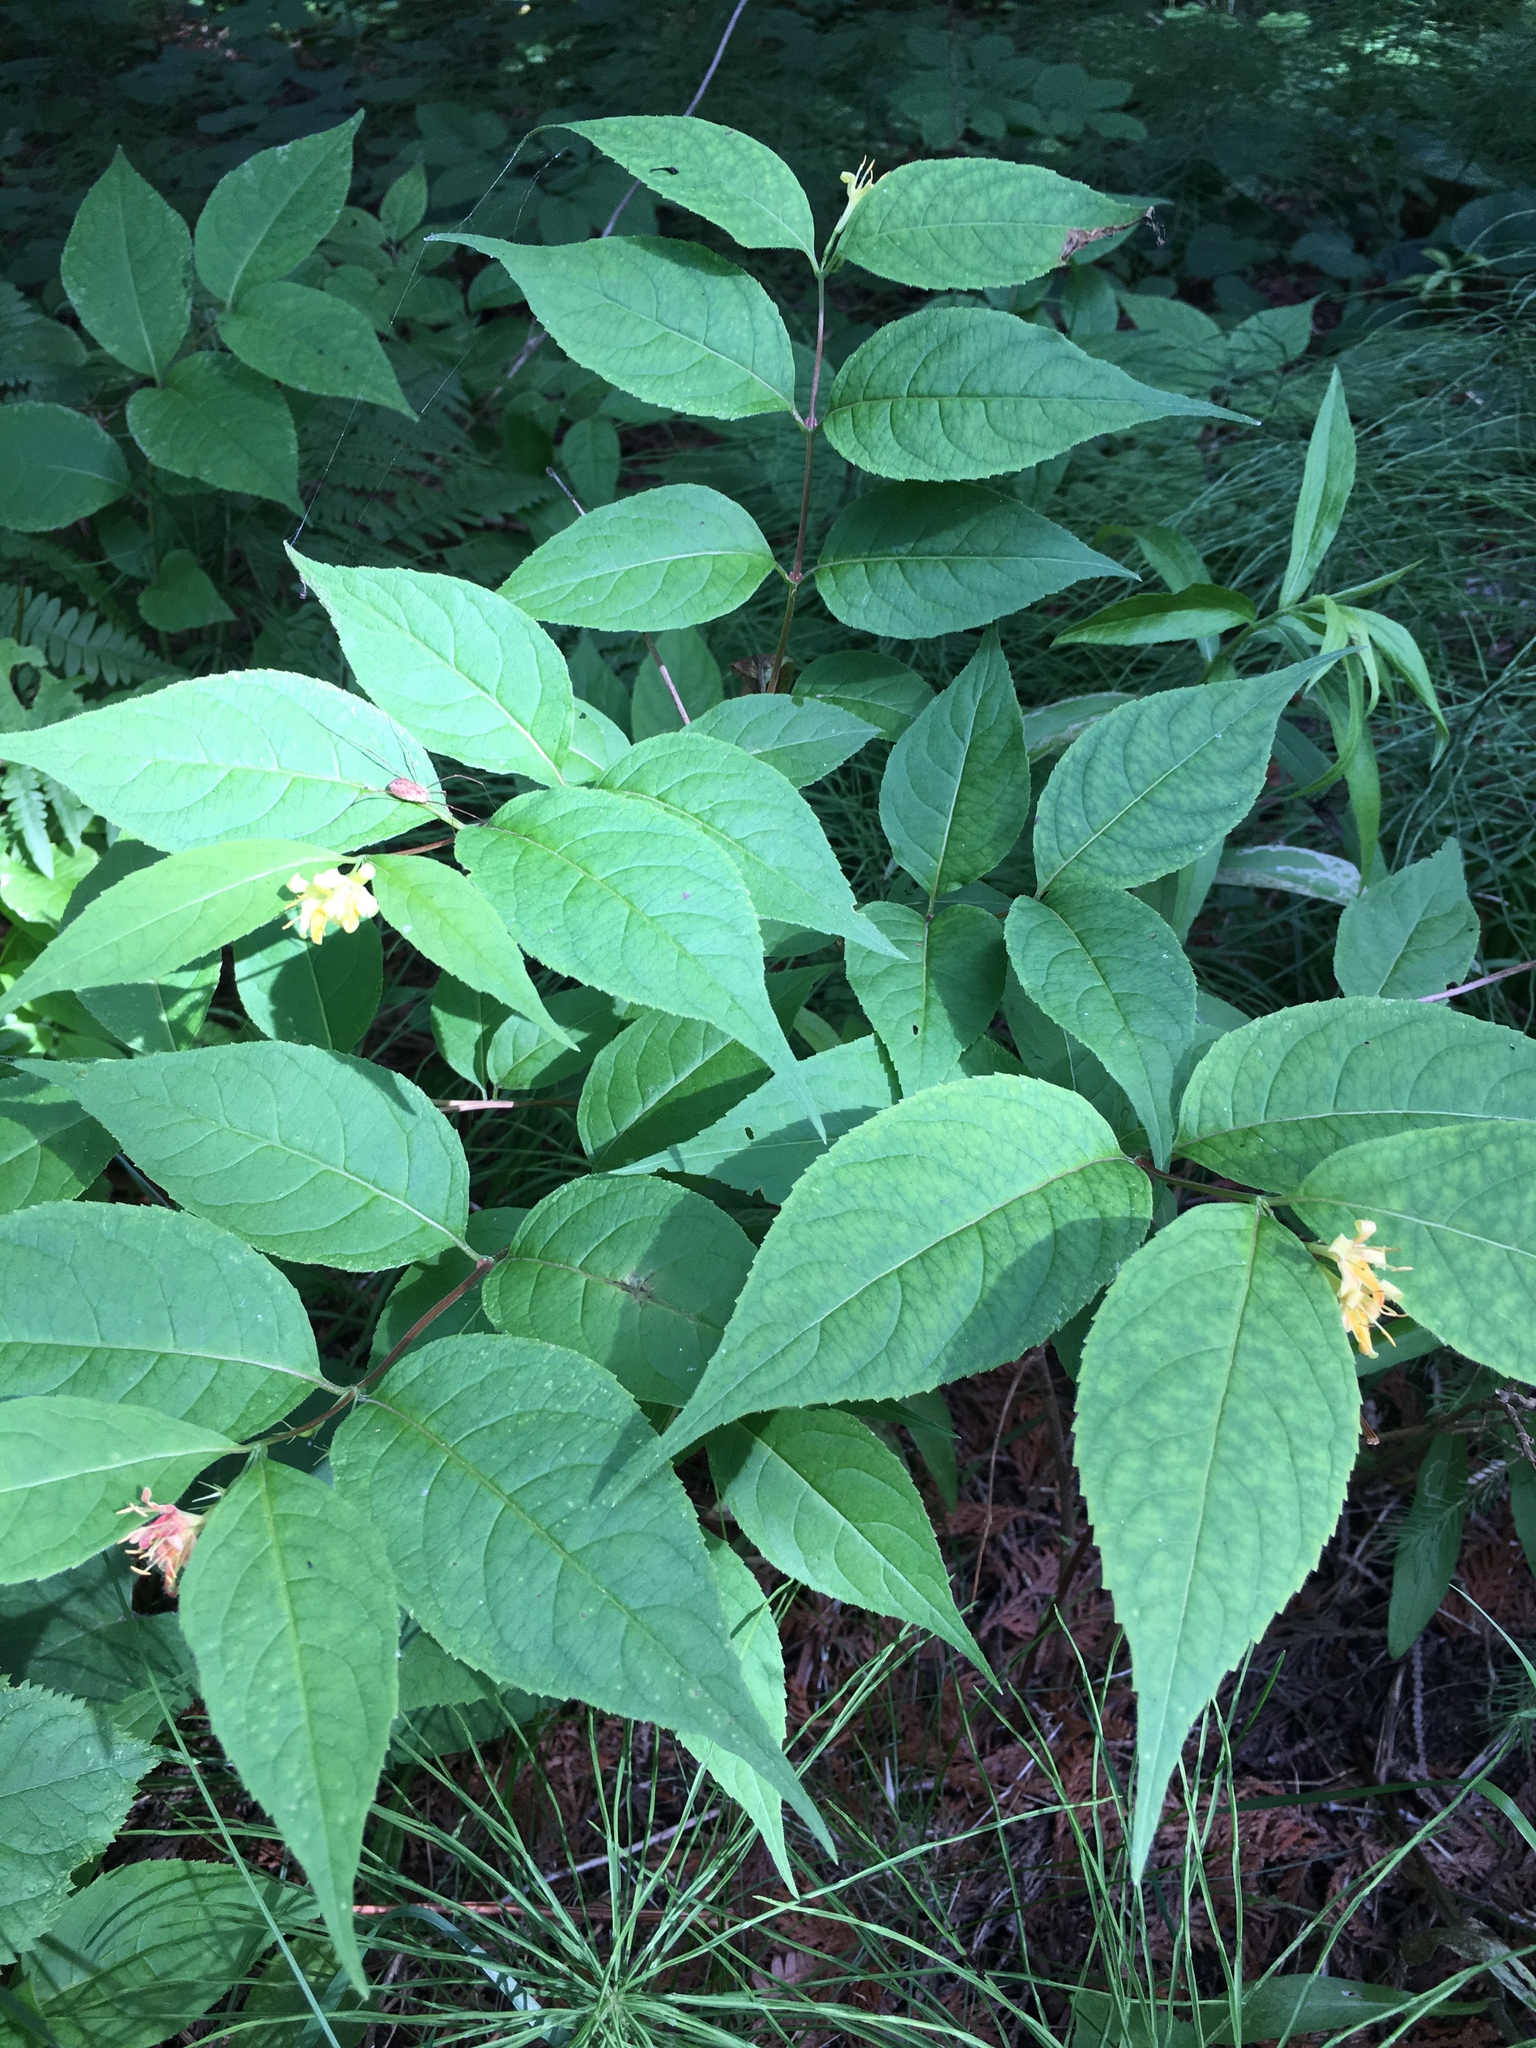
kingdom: Plantae
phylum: Tracheophyta
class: Magnoliopsida
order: Dipsacales
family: Caprifoliaceae
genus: Diervilla
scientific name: Diervilla lonicera
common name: Bush-honeysuckle
